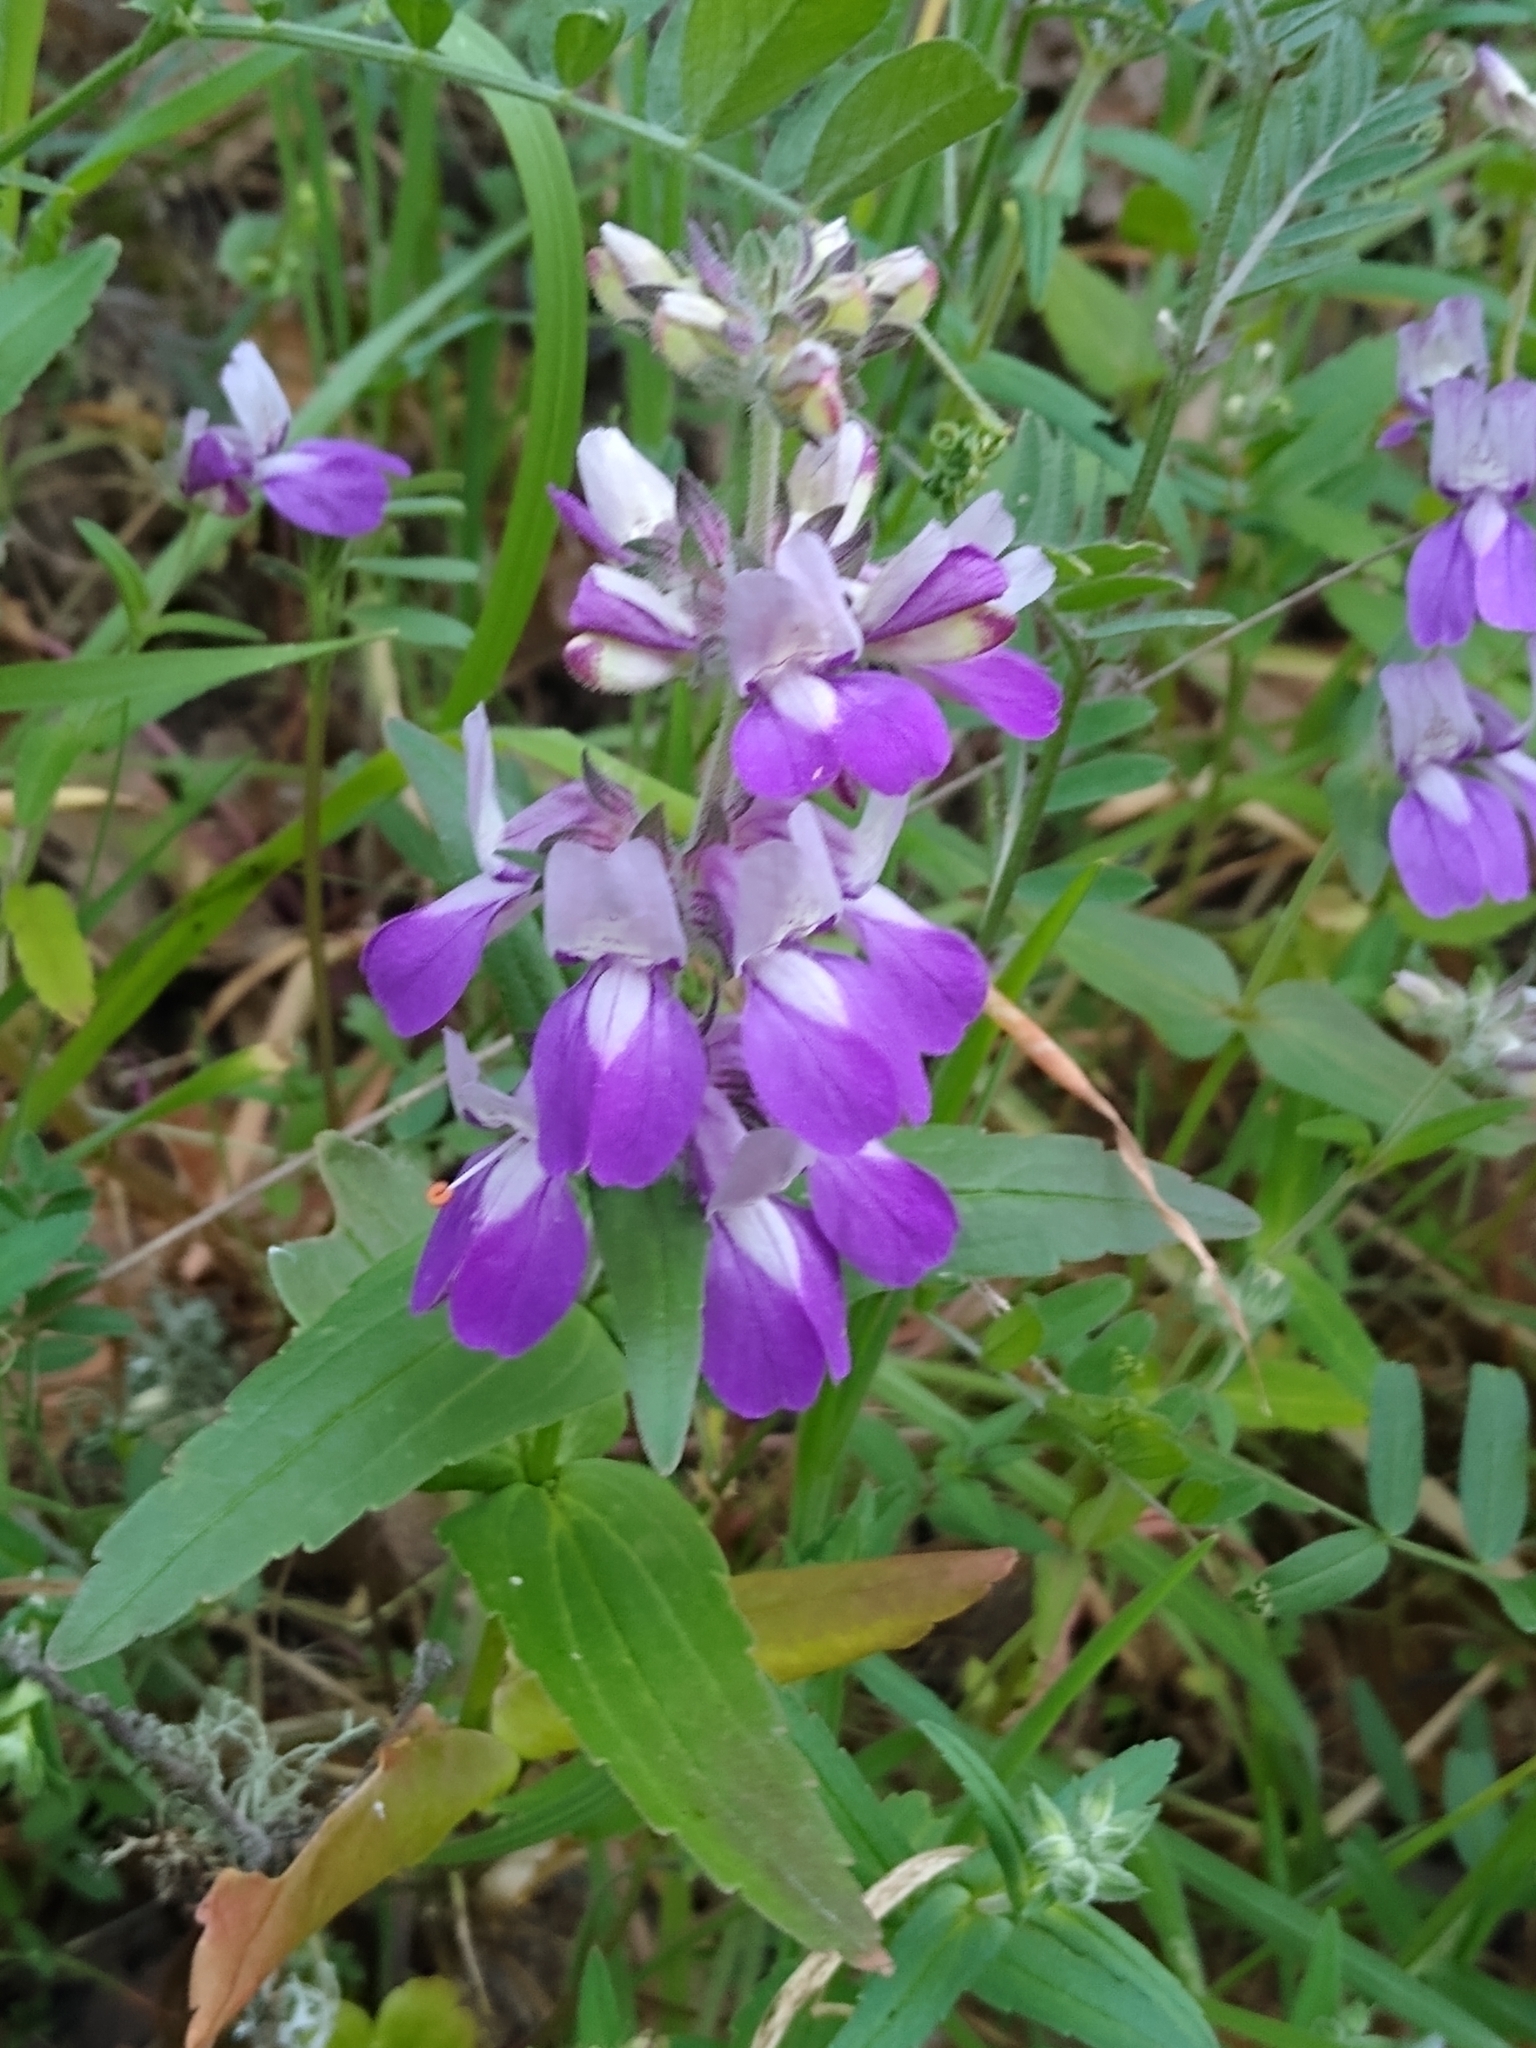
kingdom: Plantae
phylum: Tracheophyta
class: Magnoliopsida
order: Lamiales
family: Plantaginaceae
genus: Collinsia
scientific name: Collinsia heterophylla
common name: Chinese-houses
